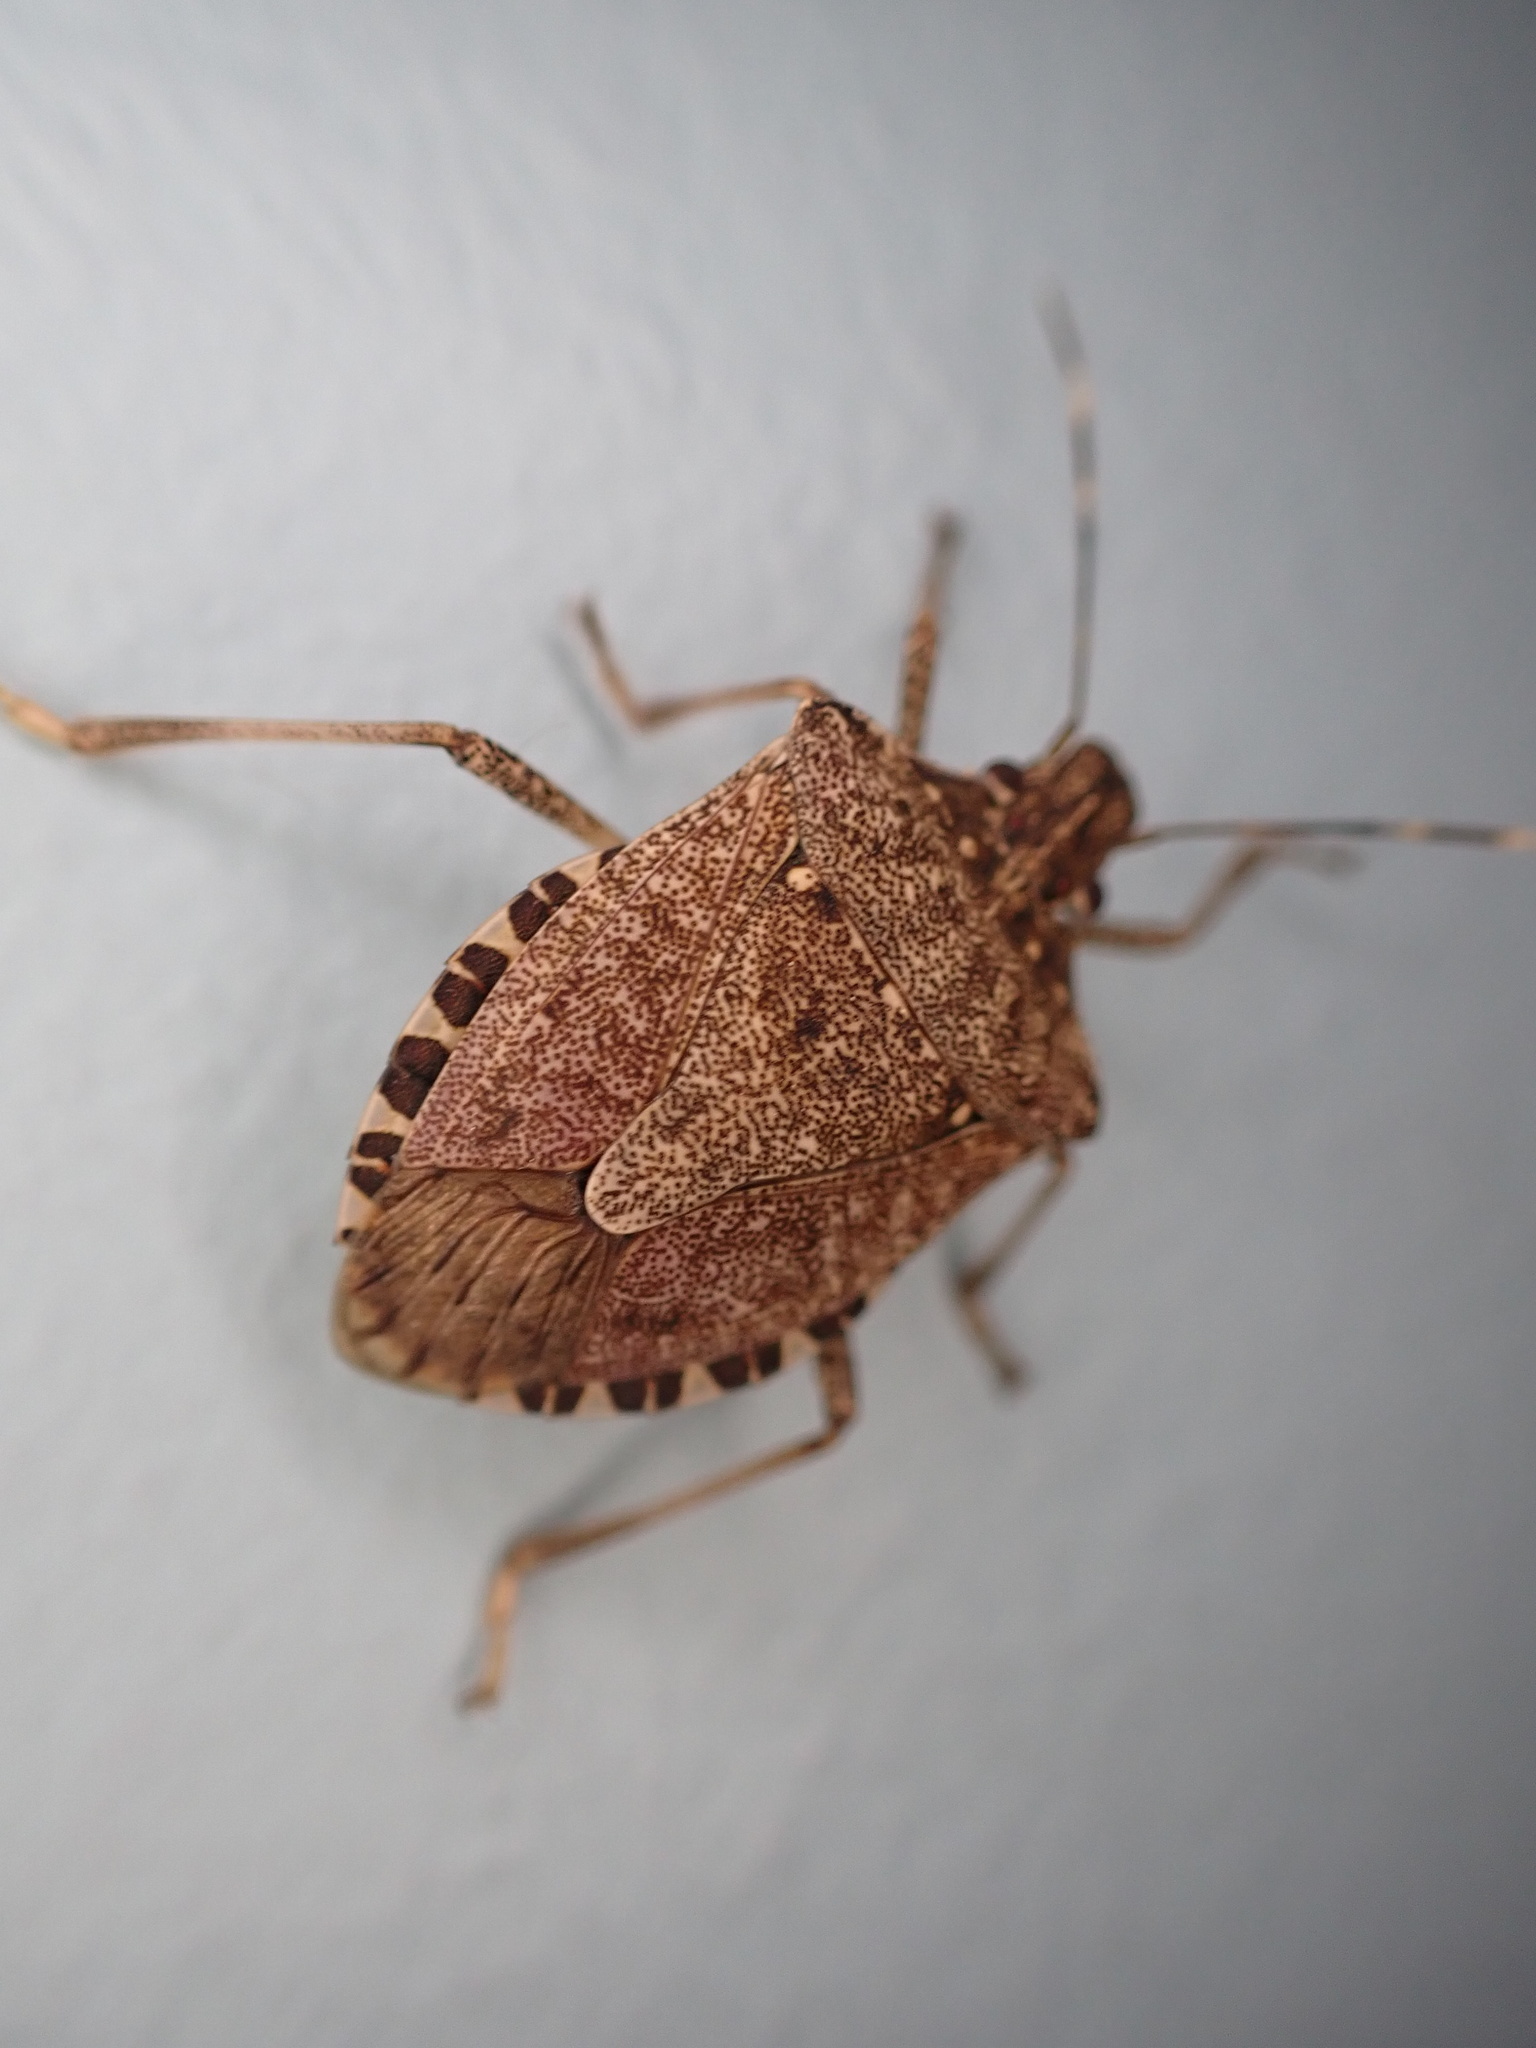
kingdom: Animalia
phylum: Arthropoda
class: Insecta
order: Hemiptera
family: Pentatomidae
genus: Halyomorpha
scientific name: Halyomorpha halys
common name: Brown marmorated stink bug
